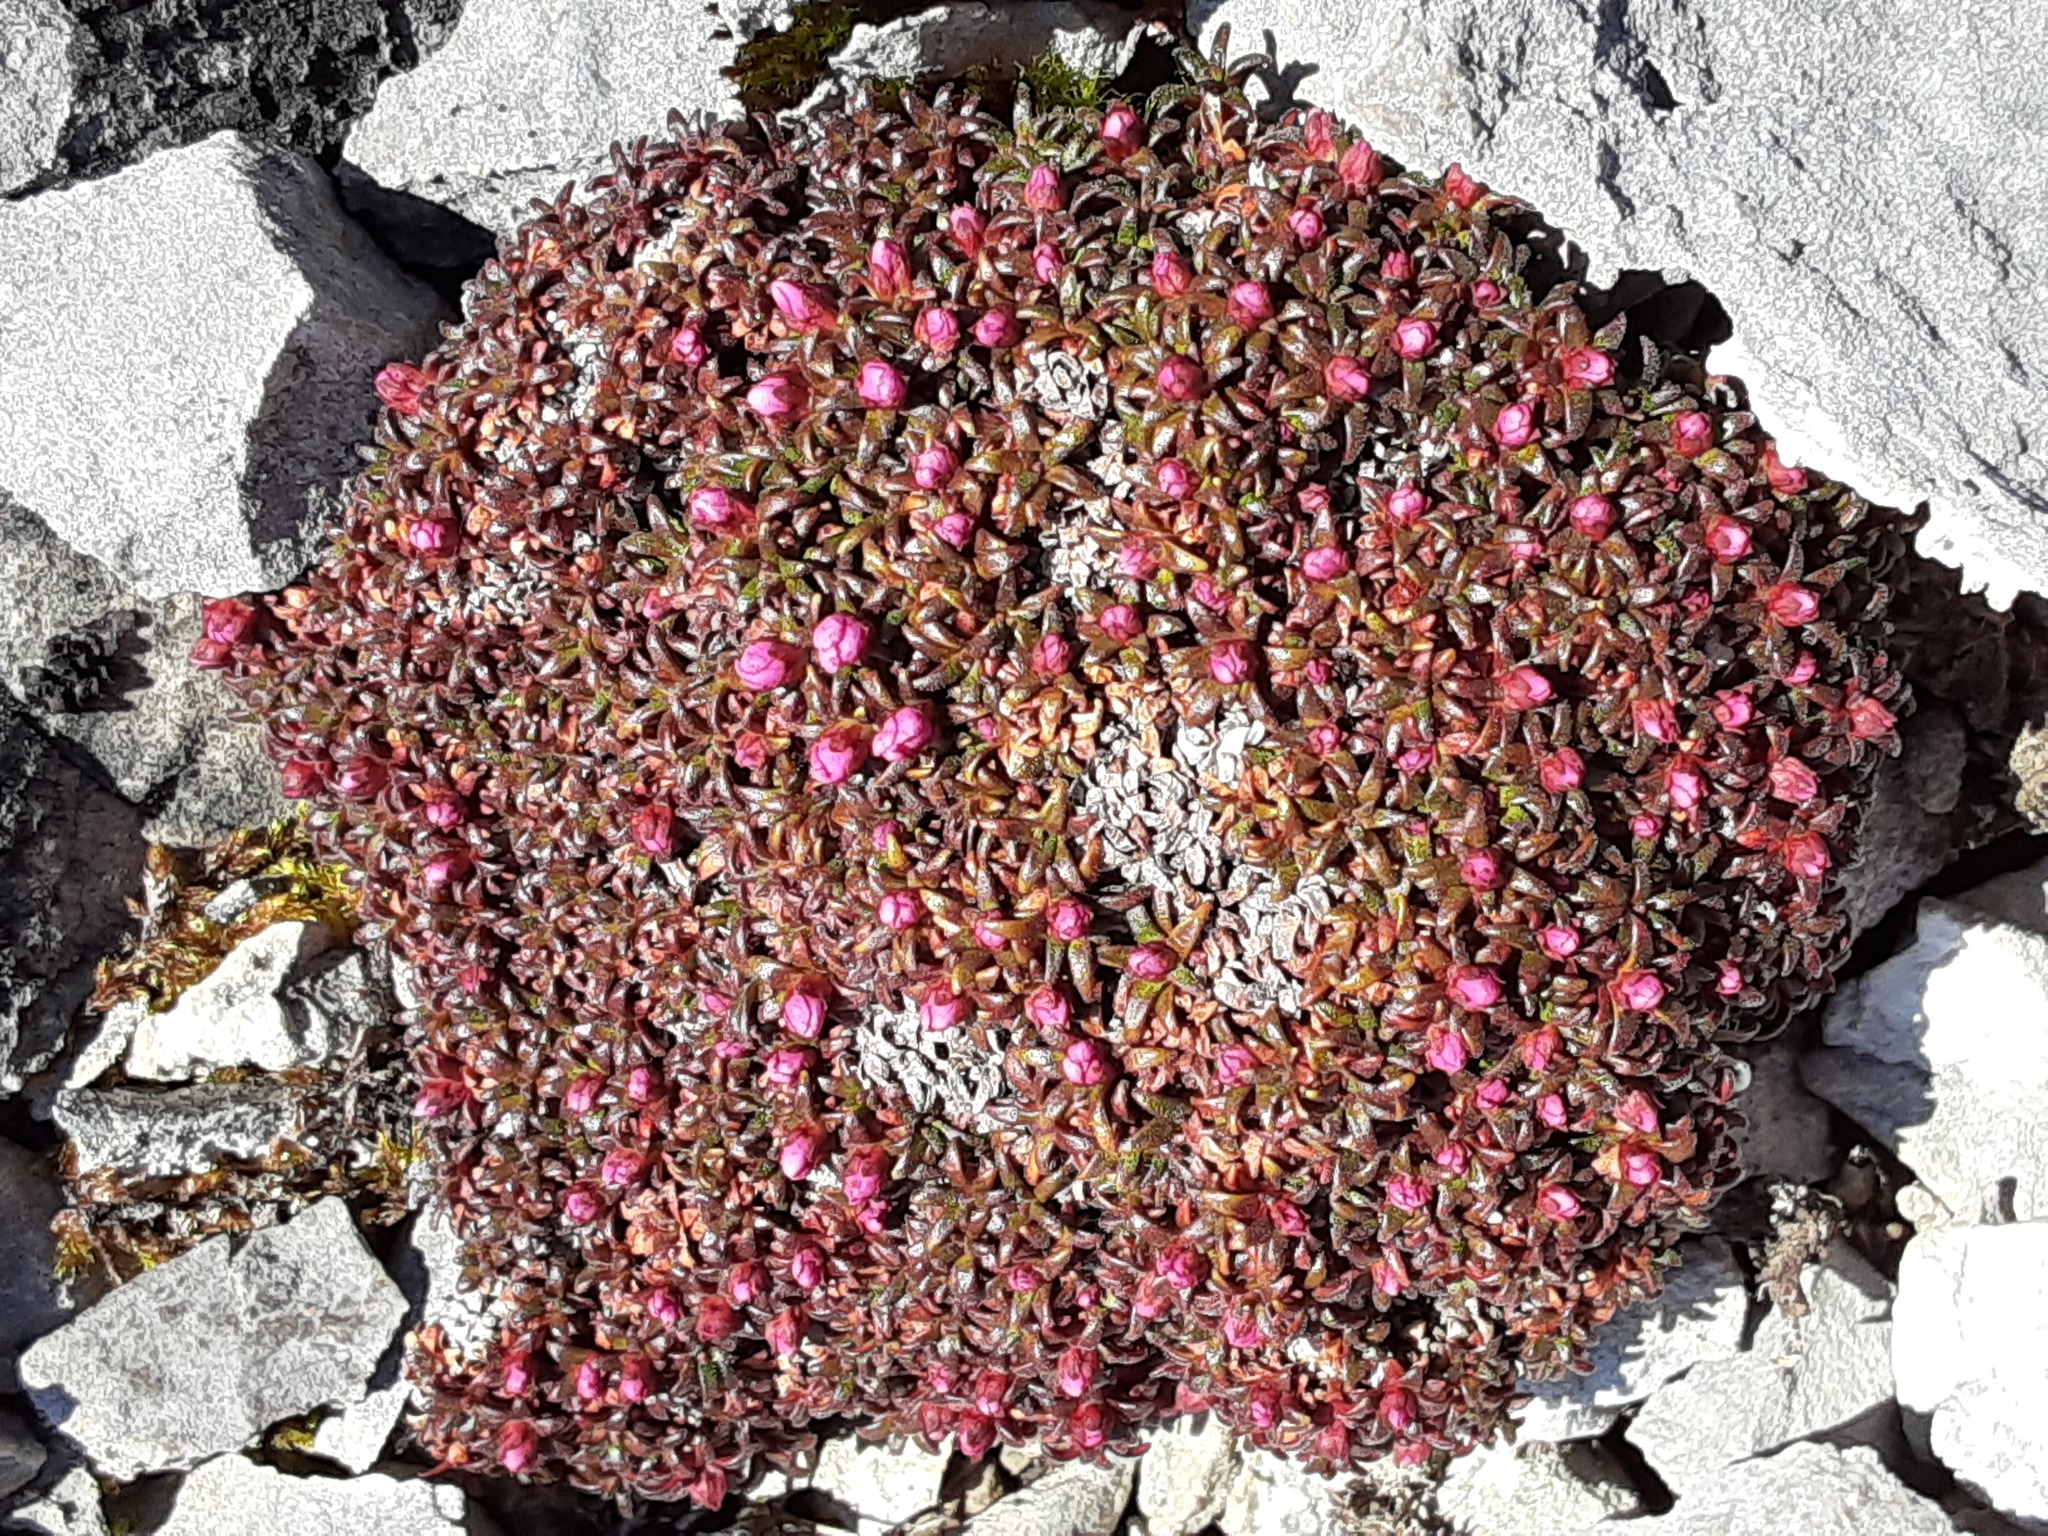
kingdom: Plantae
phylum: Tracheophyta
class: Magnoliopsida
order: Ericales
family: Primulaceae
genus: Androsace
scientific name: Androsace ochotensis
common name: Alaska dwarf-primrose
